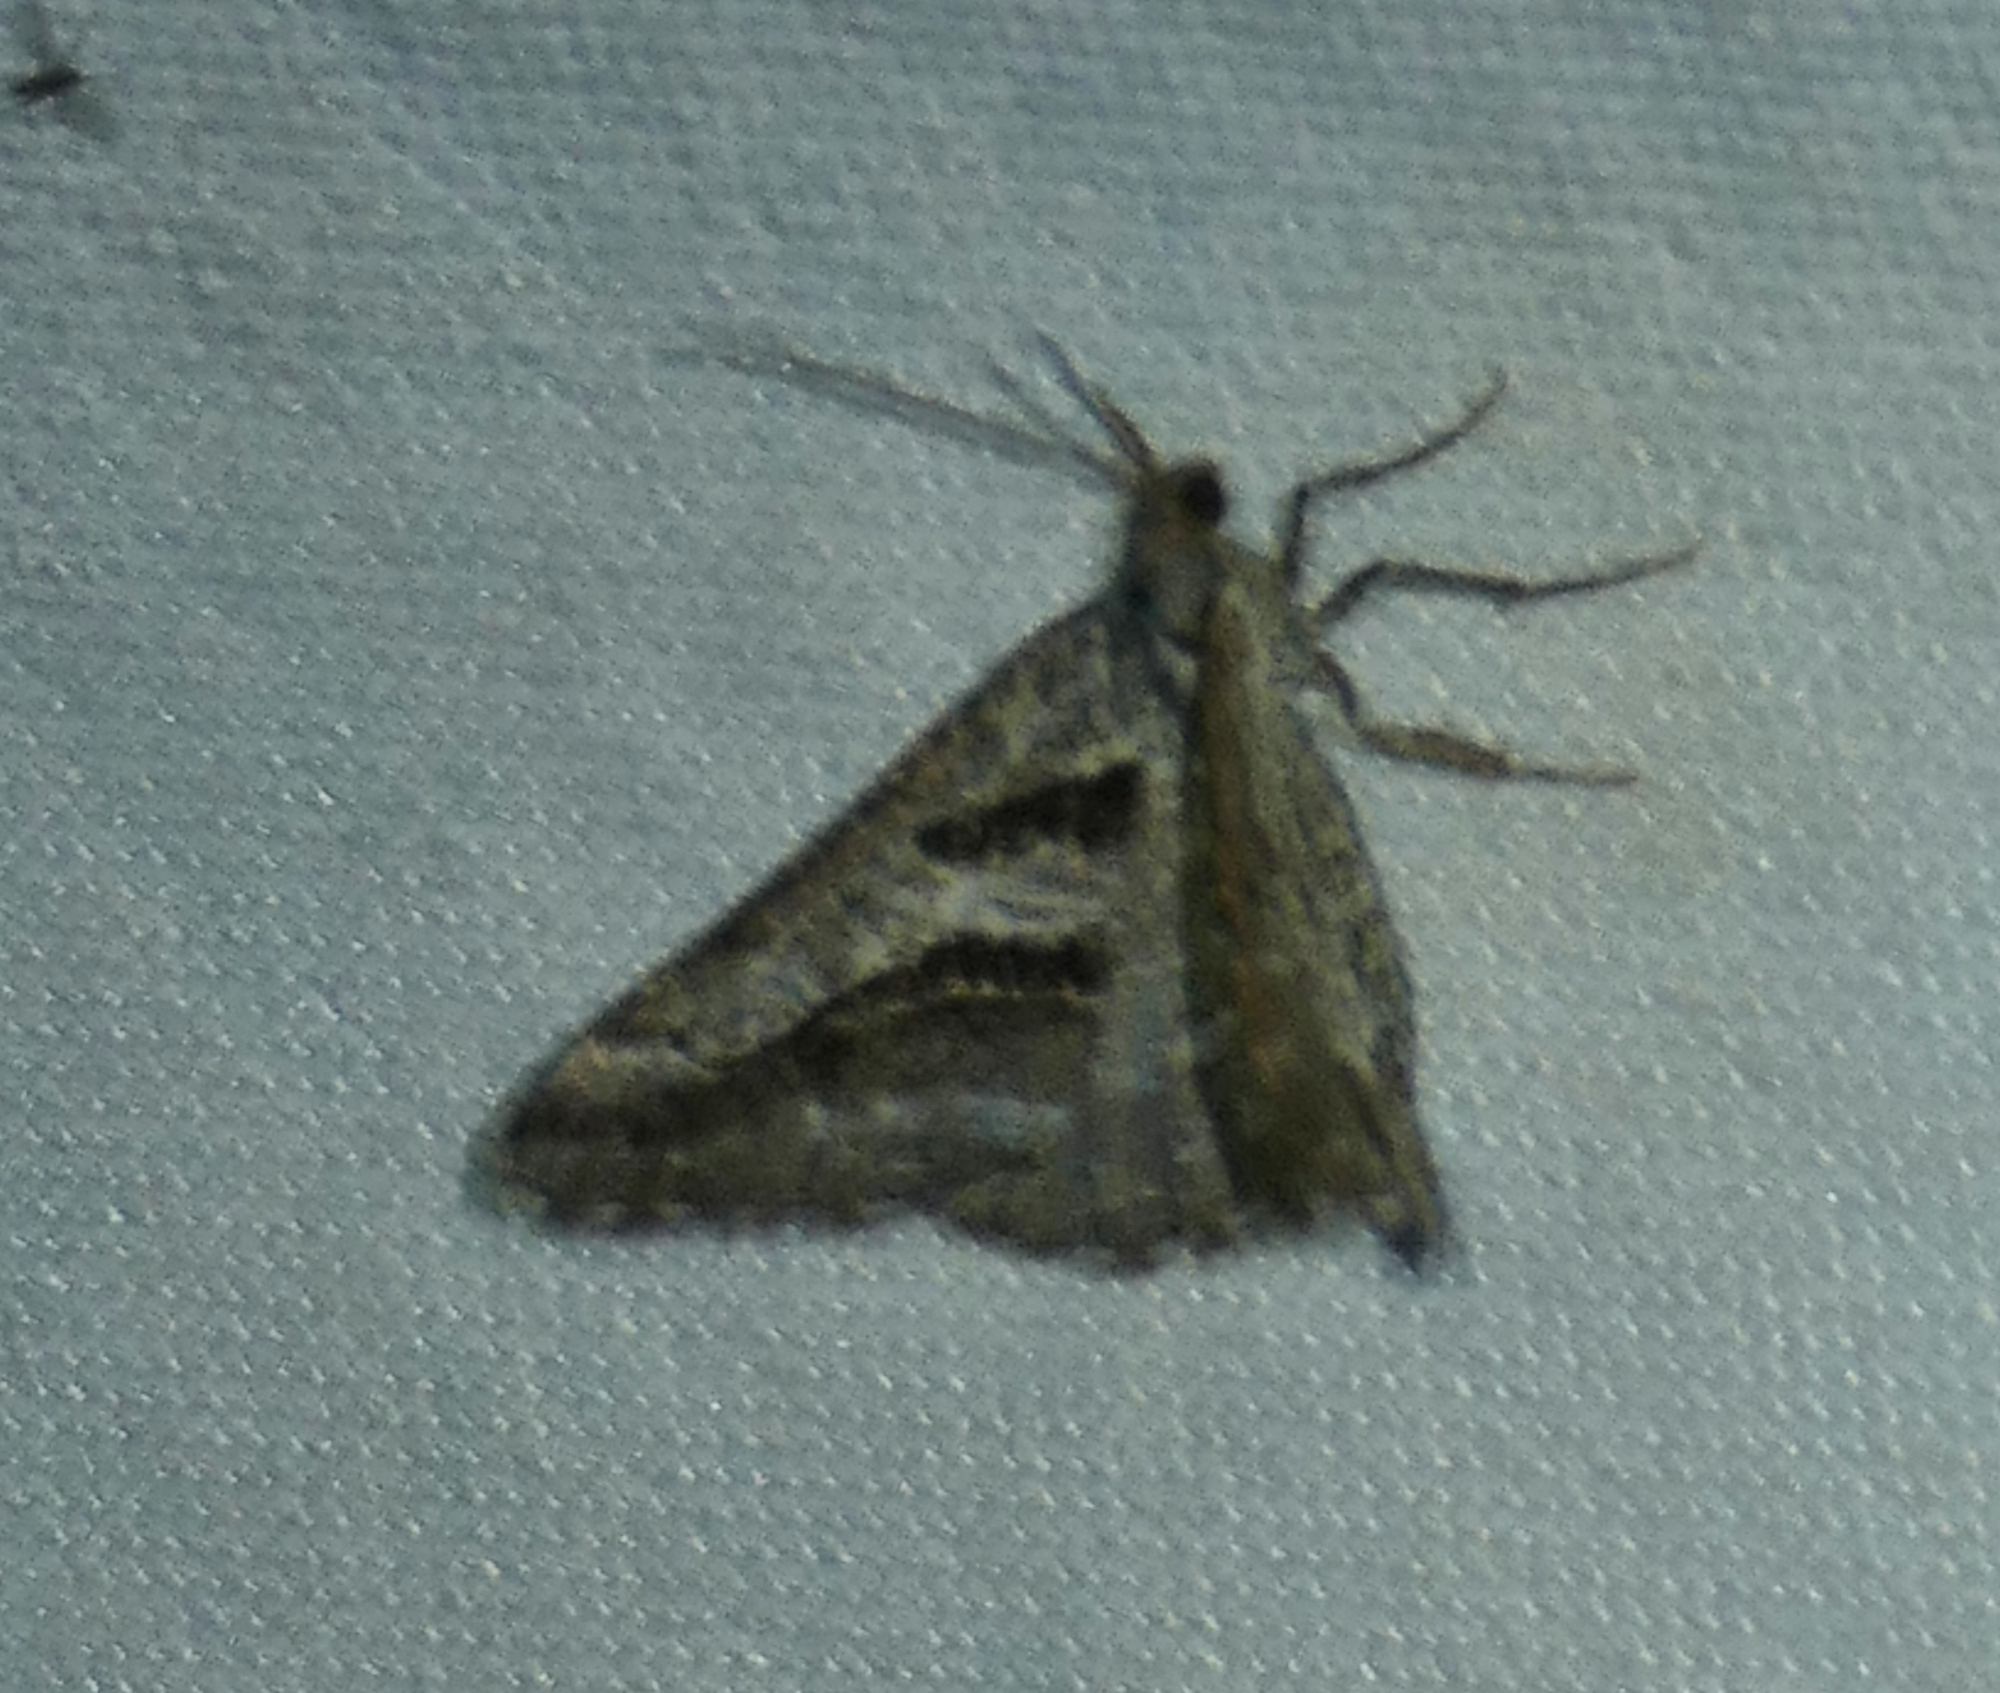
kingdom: Animalia
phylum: Arthropoda
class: Insecta
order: Lepidoptera
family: Geometridae
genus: Digrammia
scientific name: Digrammia curvata
